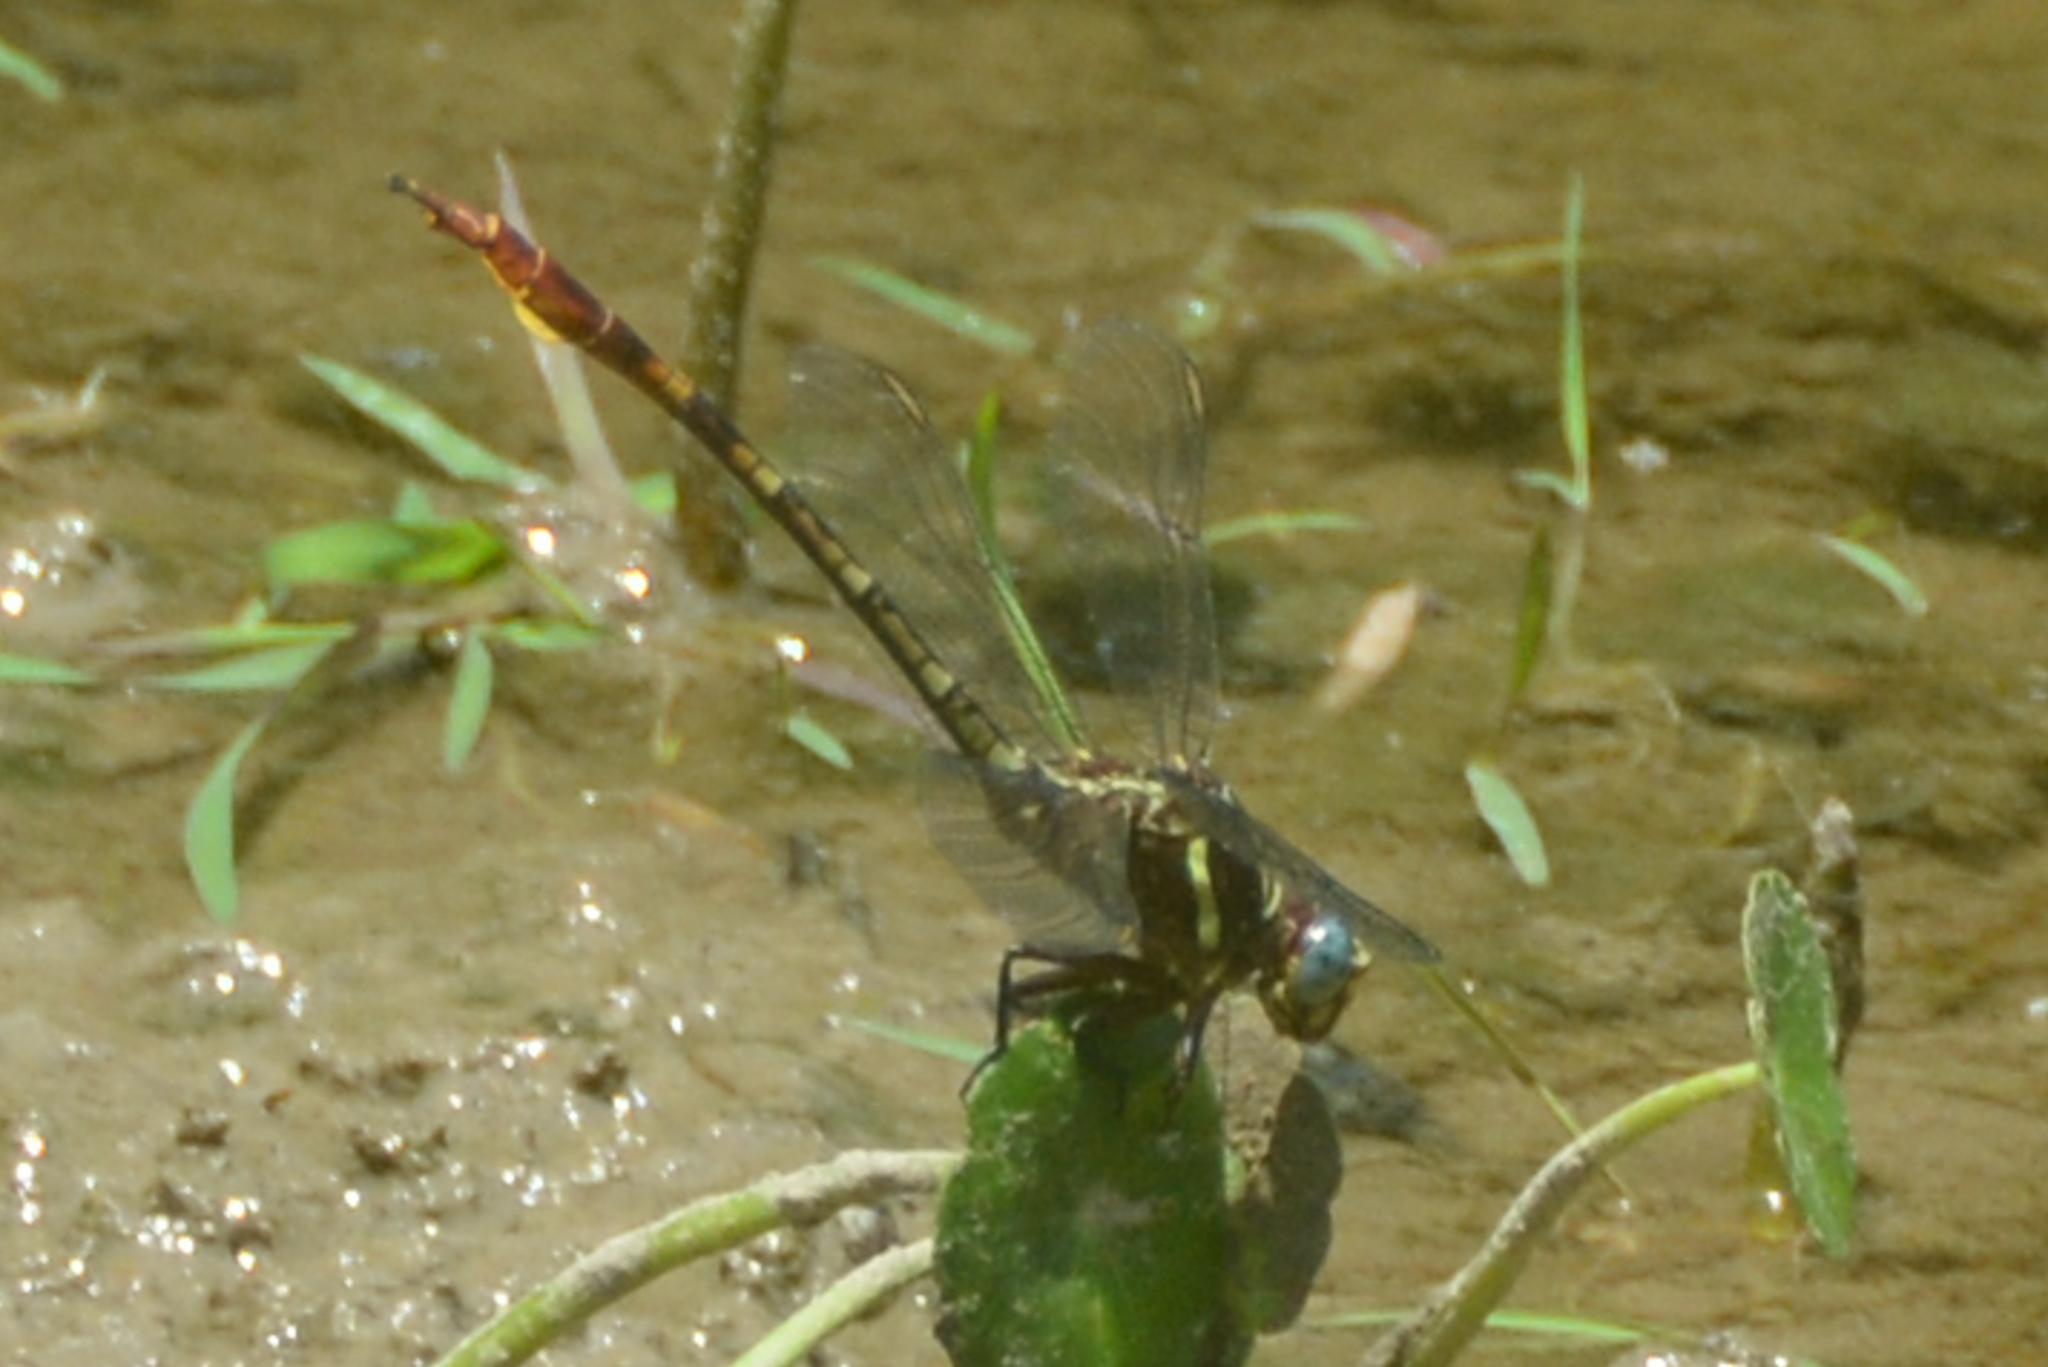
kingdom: Animalia
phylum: Arthropoda
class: Insecta
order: Odonata
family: Gomphidae
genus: Aphylla
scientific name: Aphylla williamsoni
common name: Two-striped forceptail
